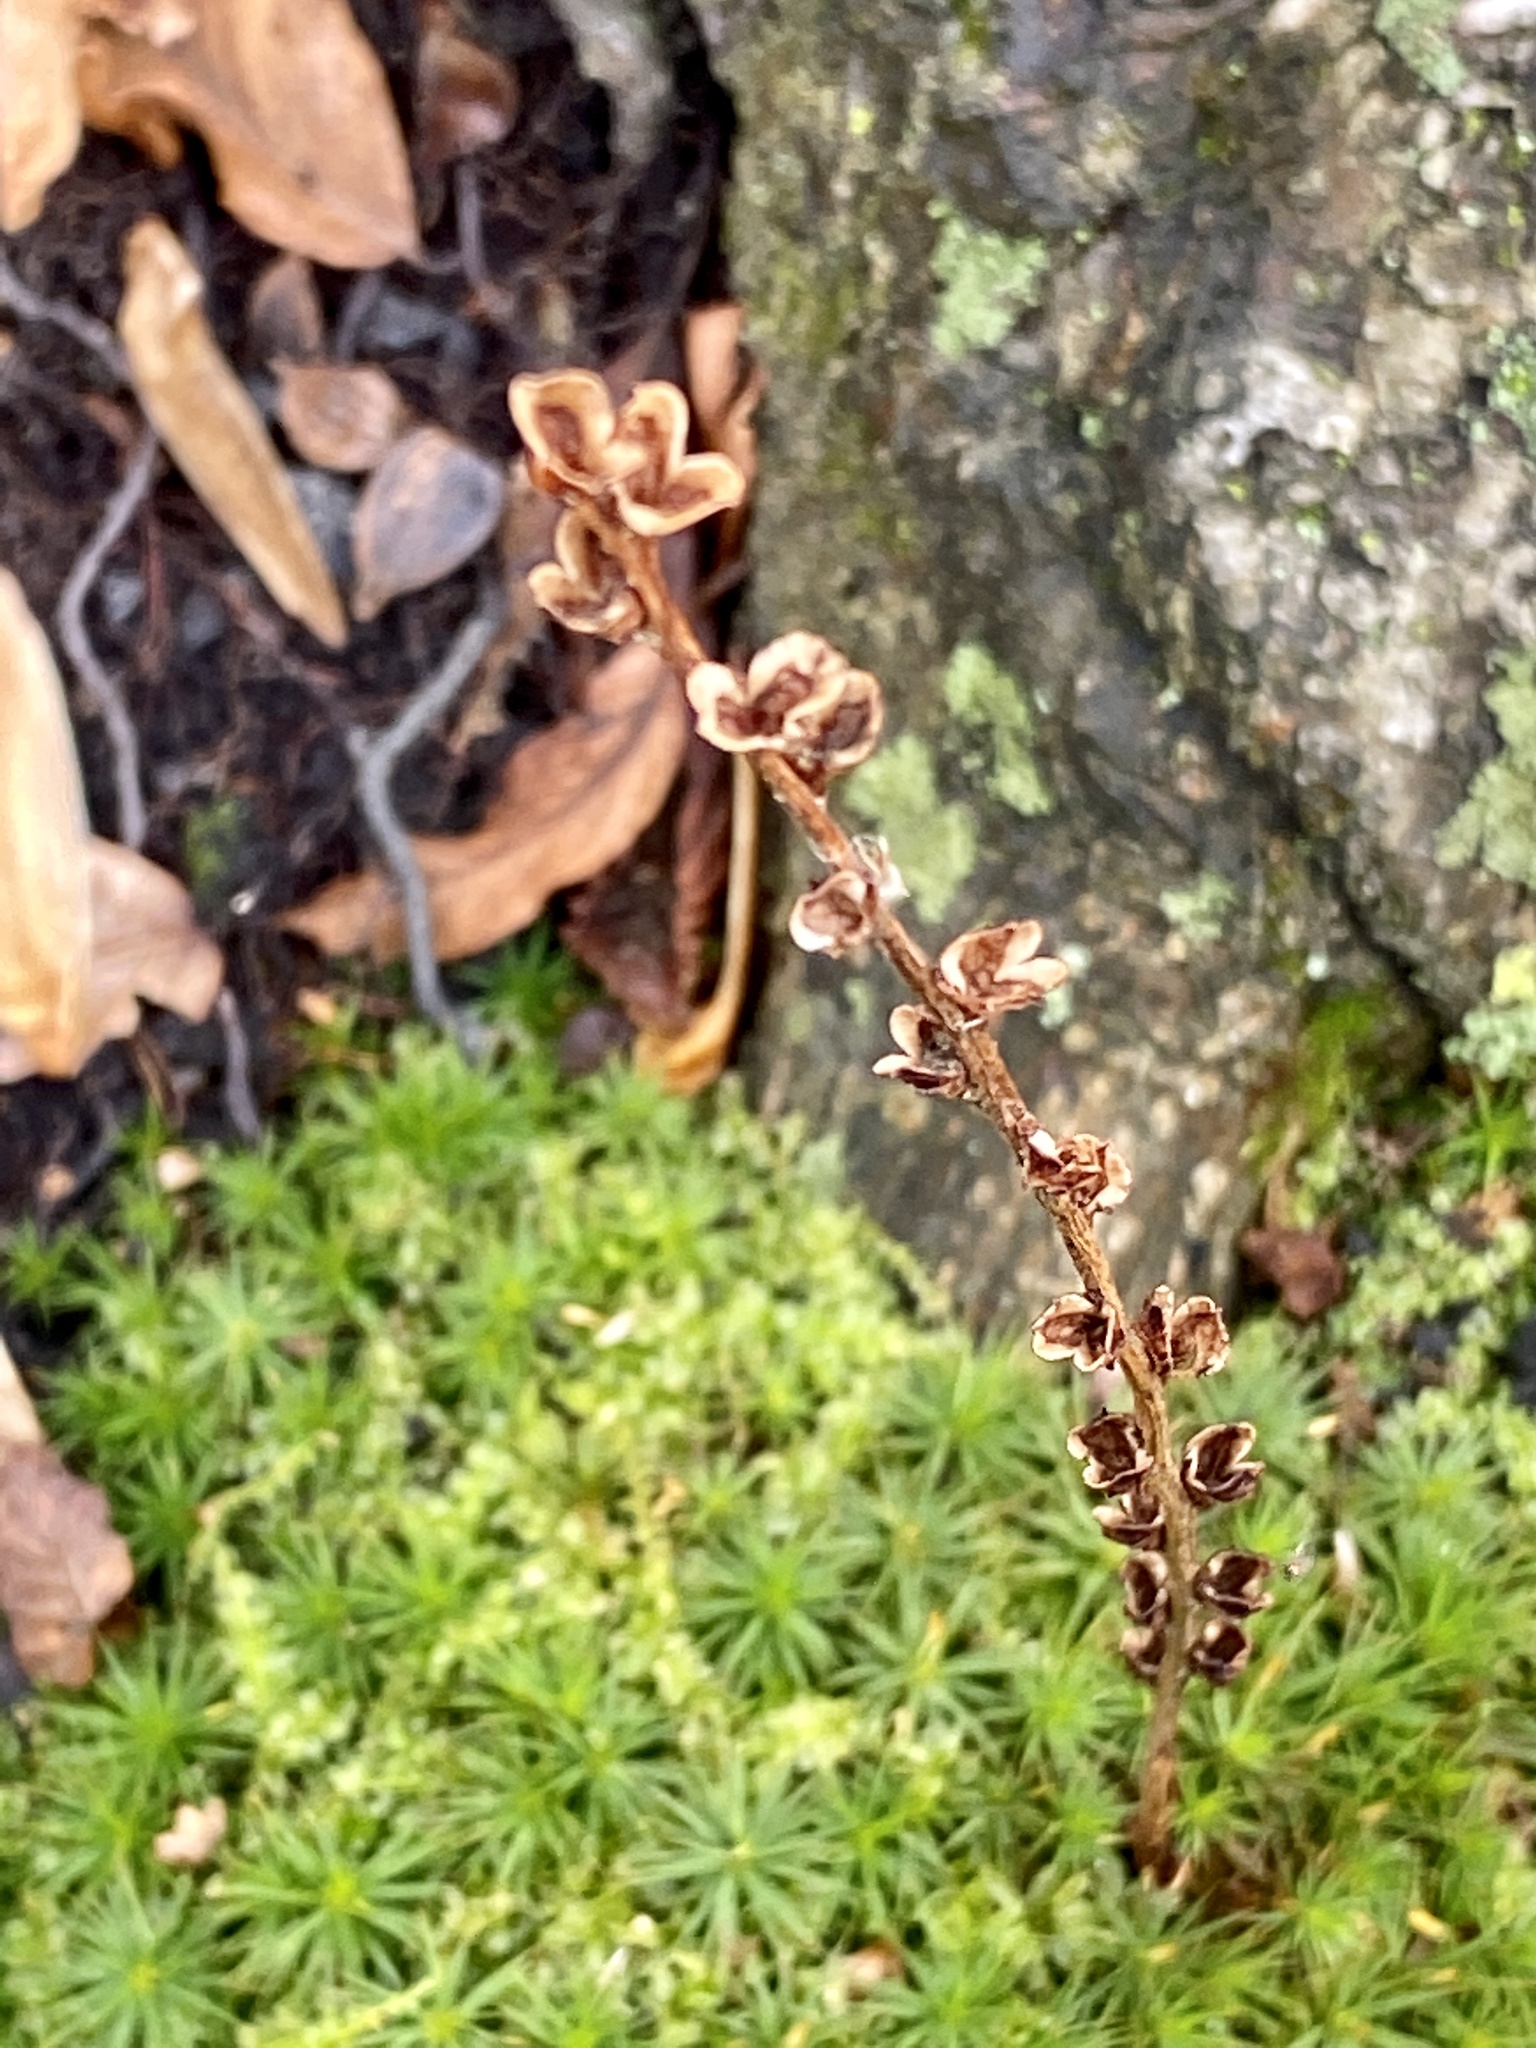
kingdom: Plantae
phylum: Tracheophyta
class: Magnoliopsida
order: Lamiales
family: Orobanchaceae
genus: Epifagus
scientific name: Epifagus virginiana
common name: Beechdrops
